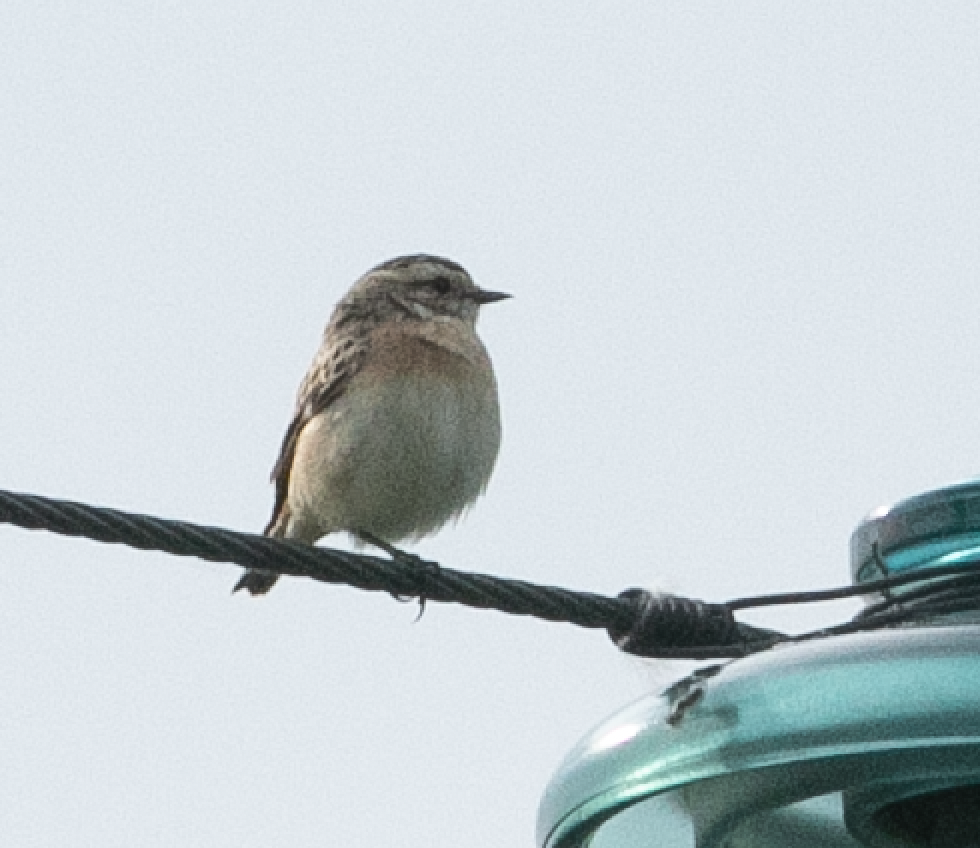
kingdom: Animalia
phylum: Chordata
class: Aves
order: Passeriformes
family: Muscicapidae
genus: Saxicola
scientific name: Saxicola rubetra
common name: Whinchat
